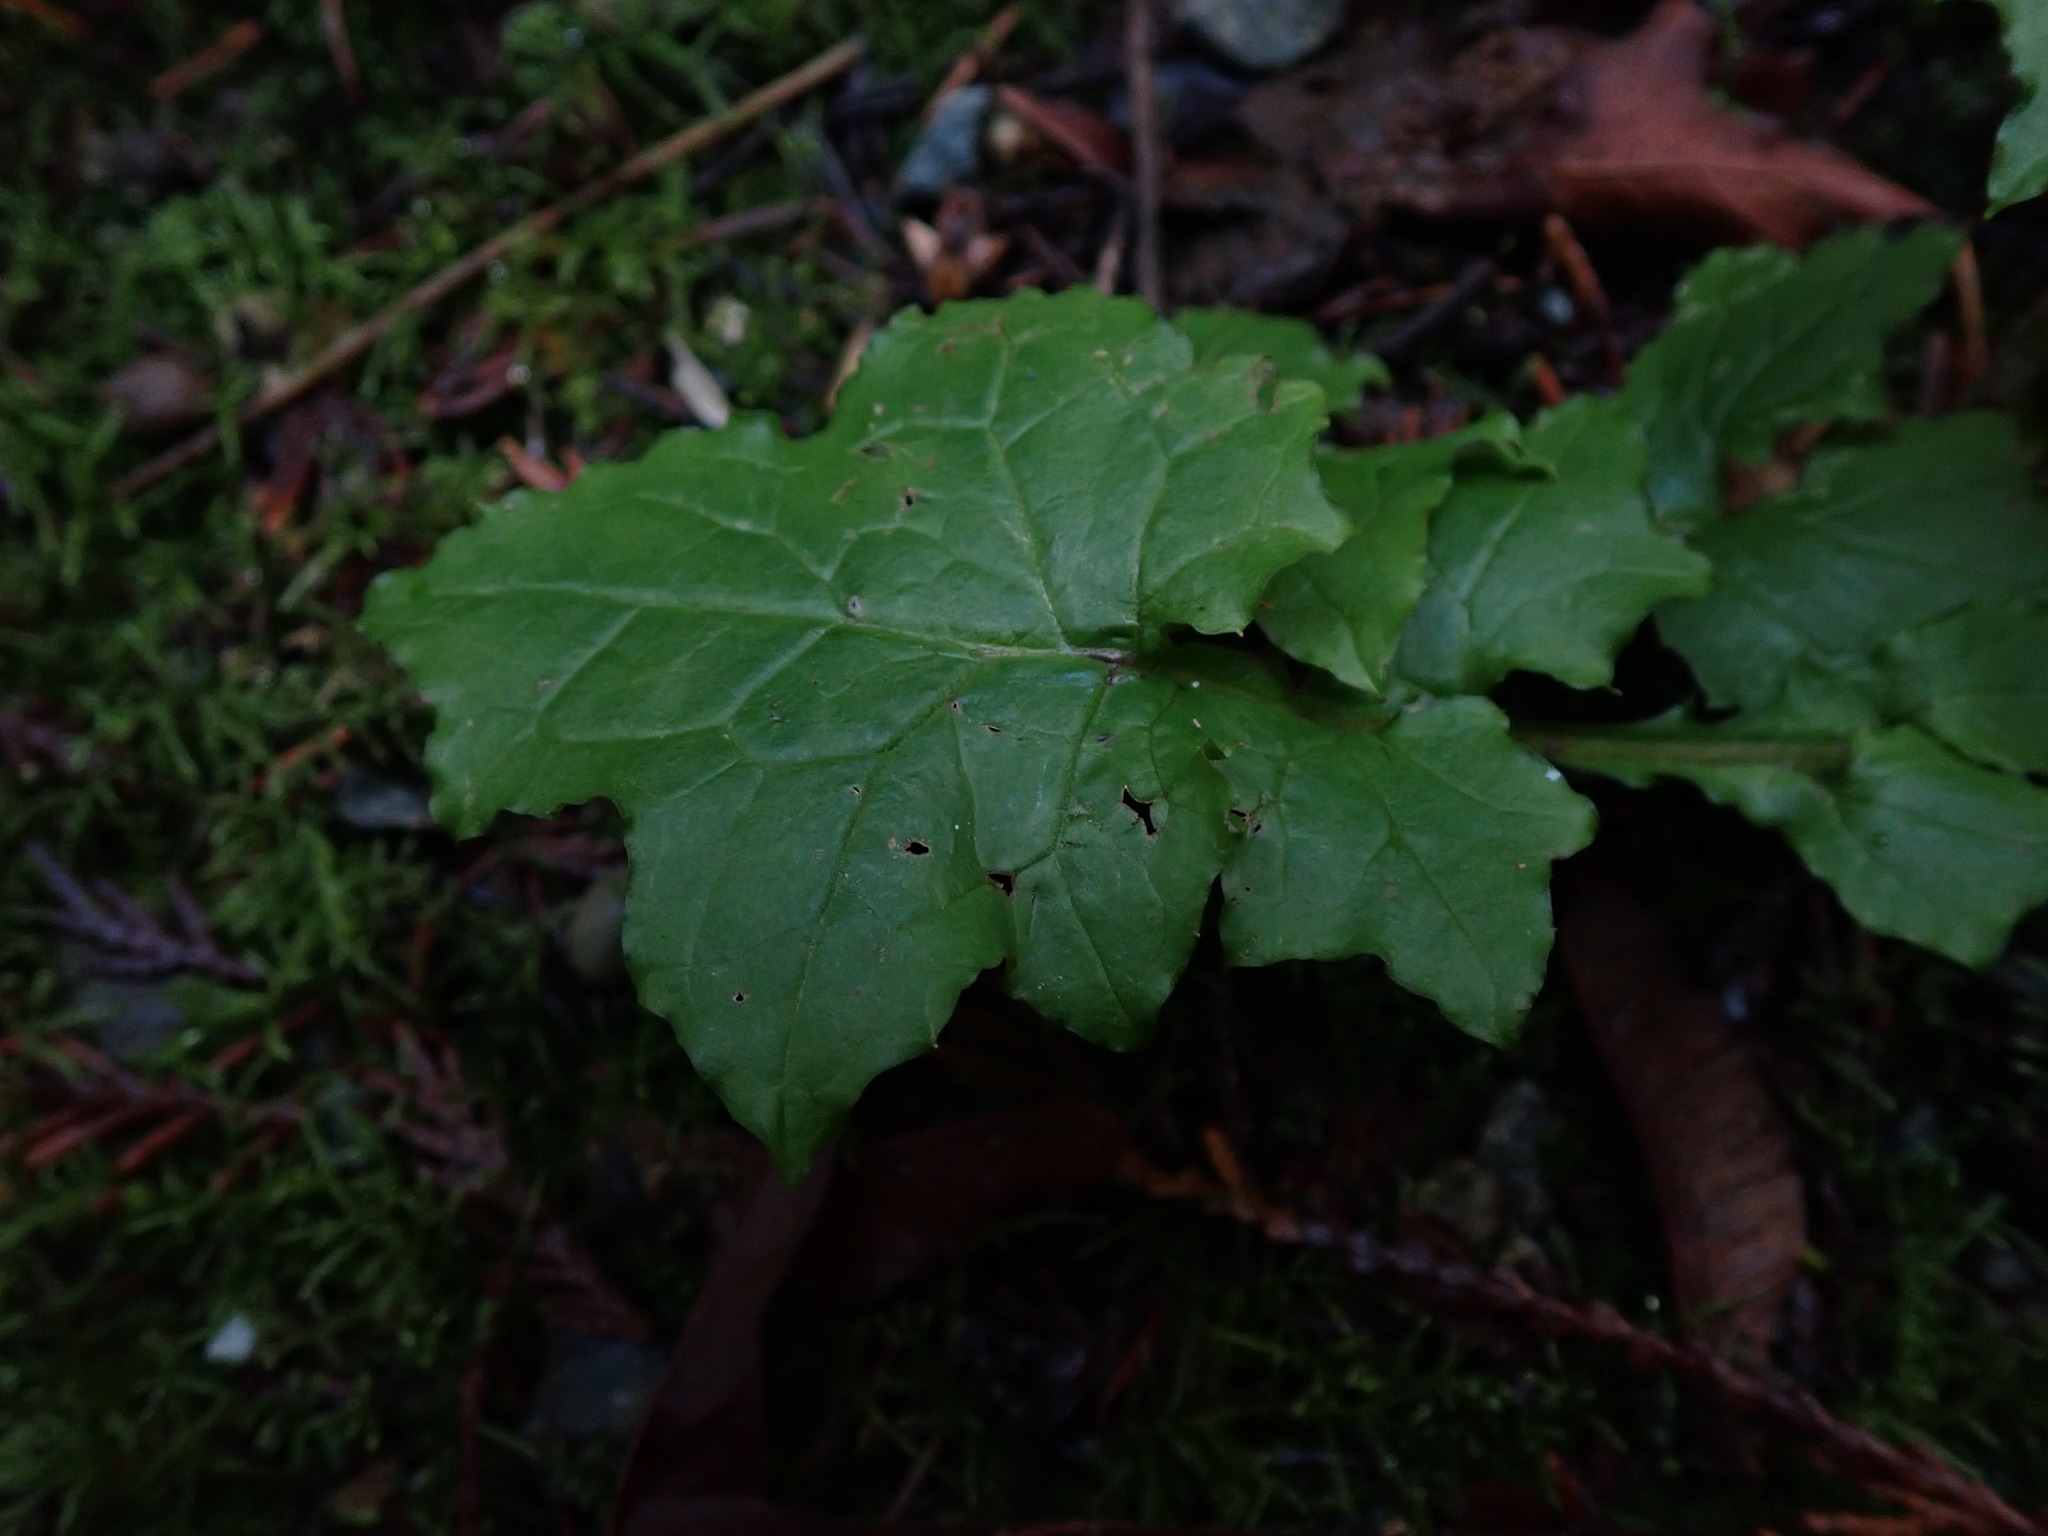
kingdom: Plantae
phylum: Tracheophyta
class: Magnoliopsida
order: Asterales
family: Asteraceae
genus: Mycelis
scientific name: Mycelis muralis
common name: Wall lettuce
